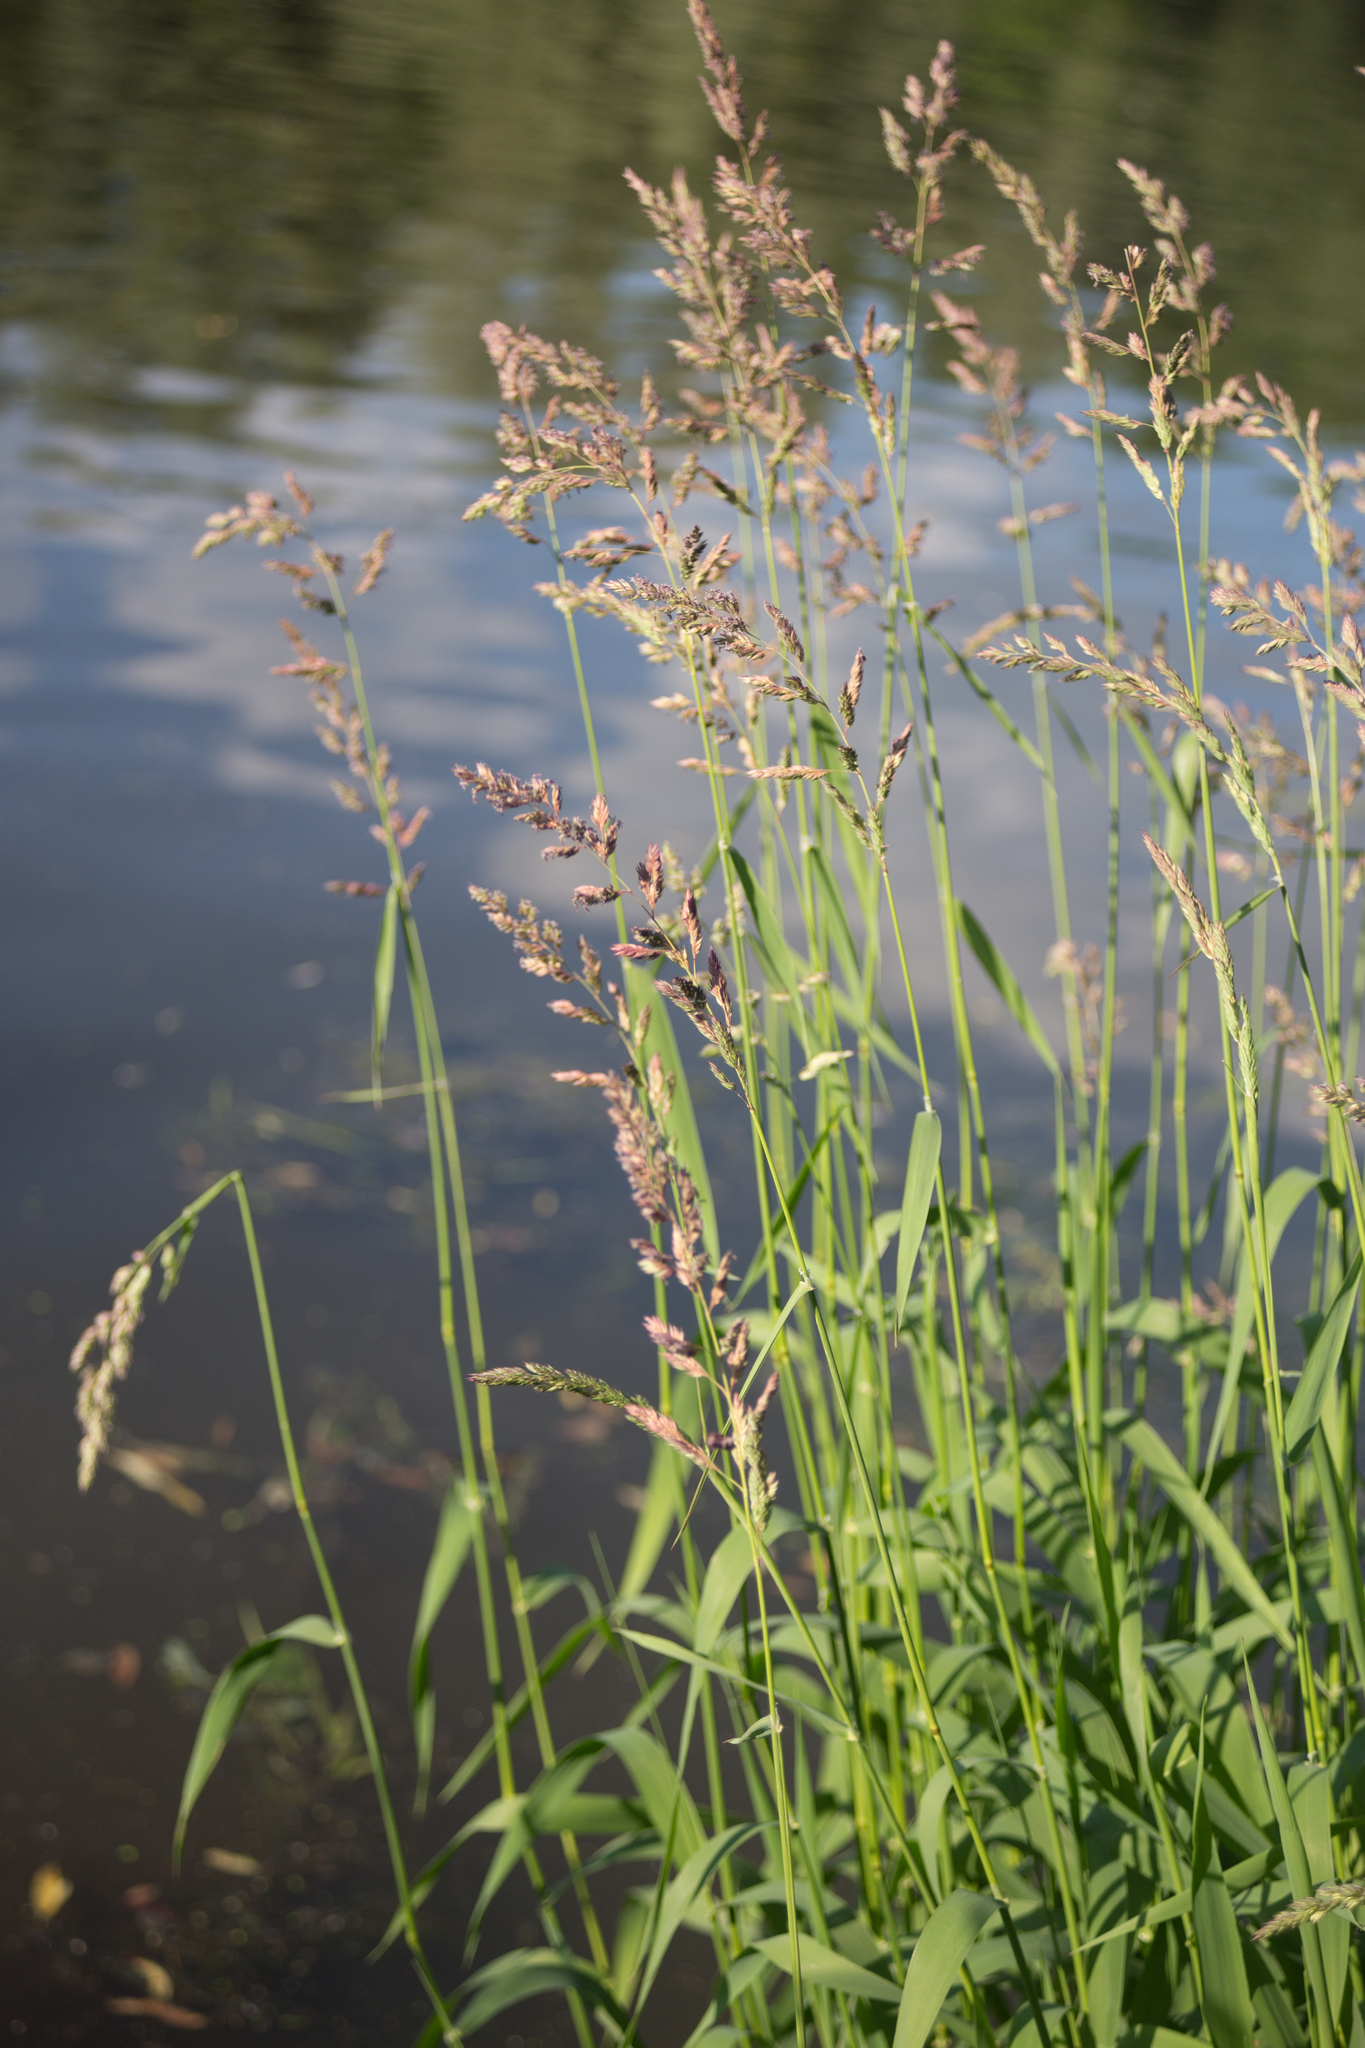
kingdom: Plantae
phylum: Tracheophyta
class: Liliopsida
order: Poales
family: Poaceae
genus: Phalaris
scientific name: Phalaris arundinacea
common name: Reed canary-grass
